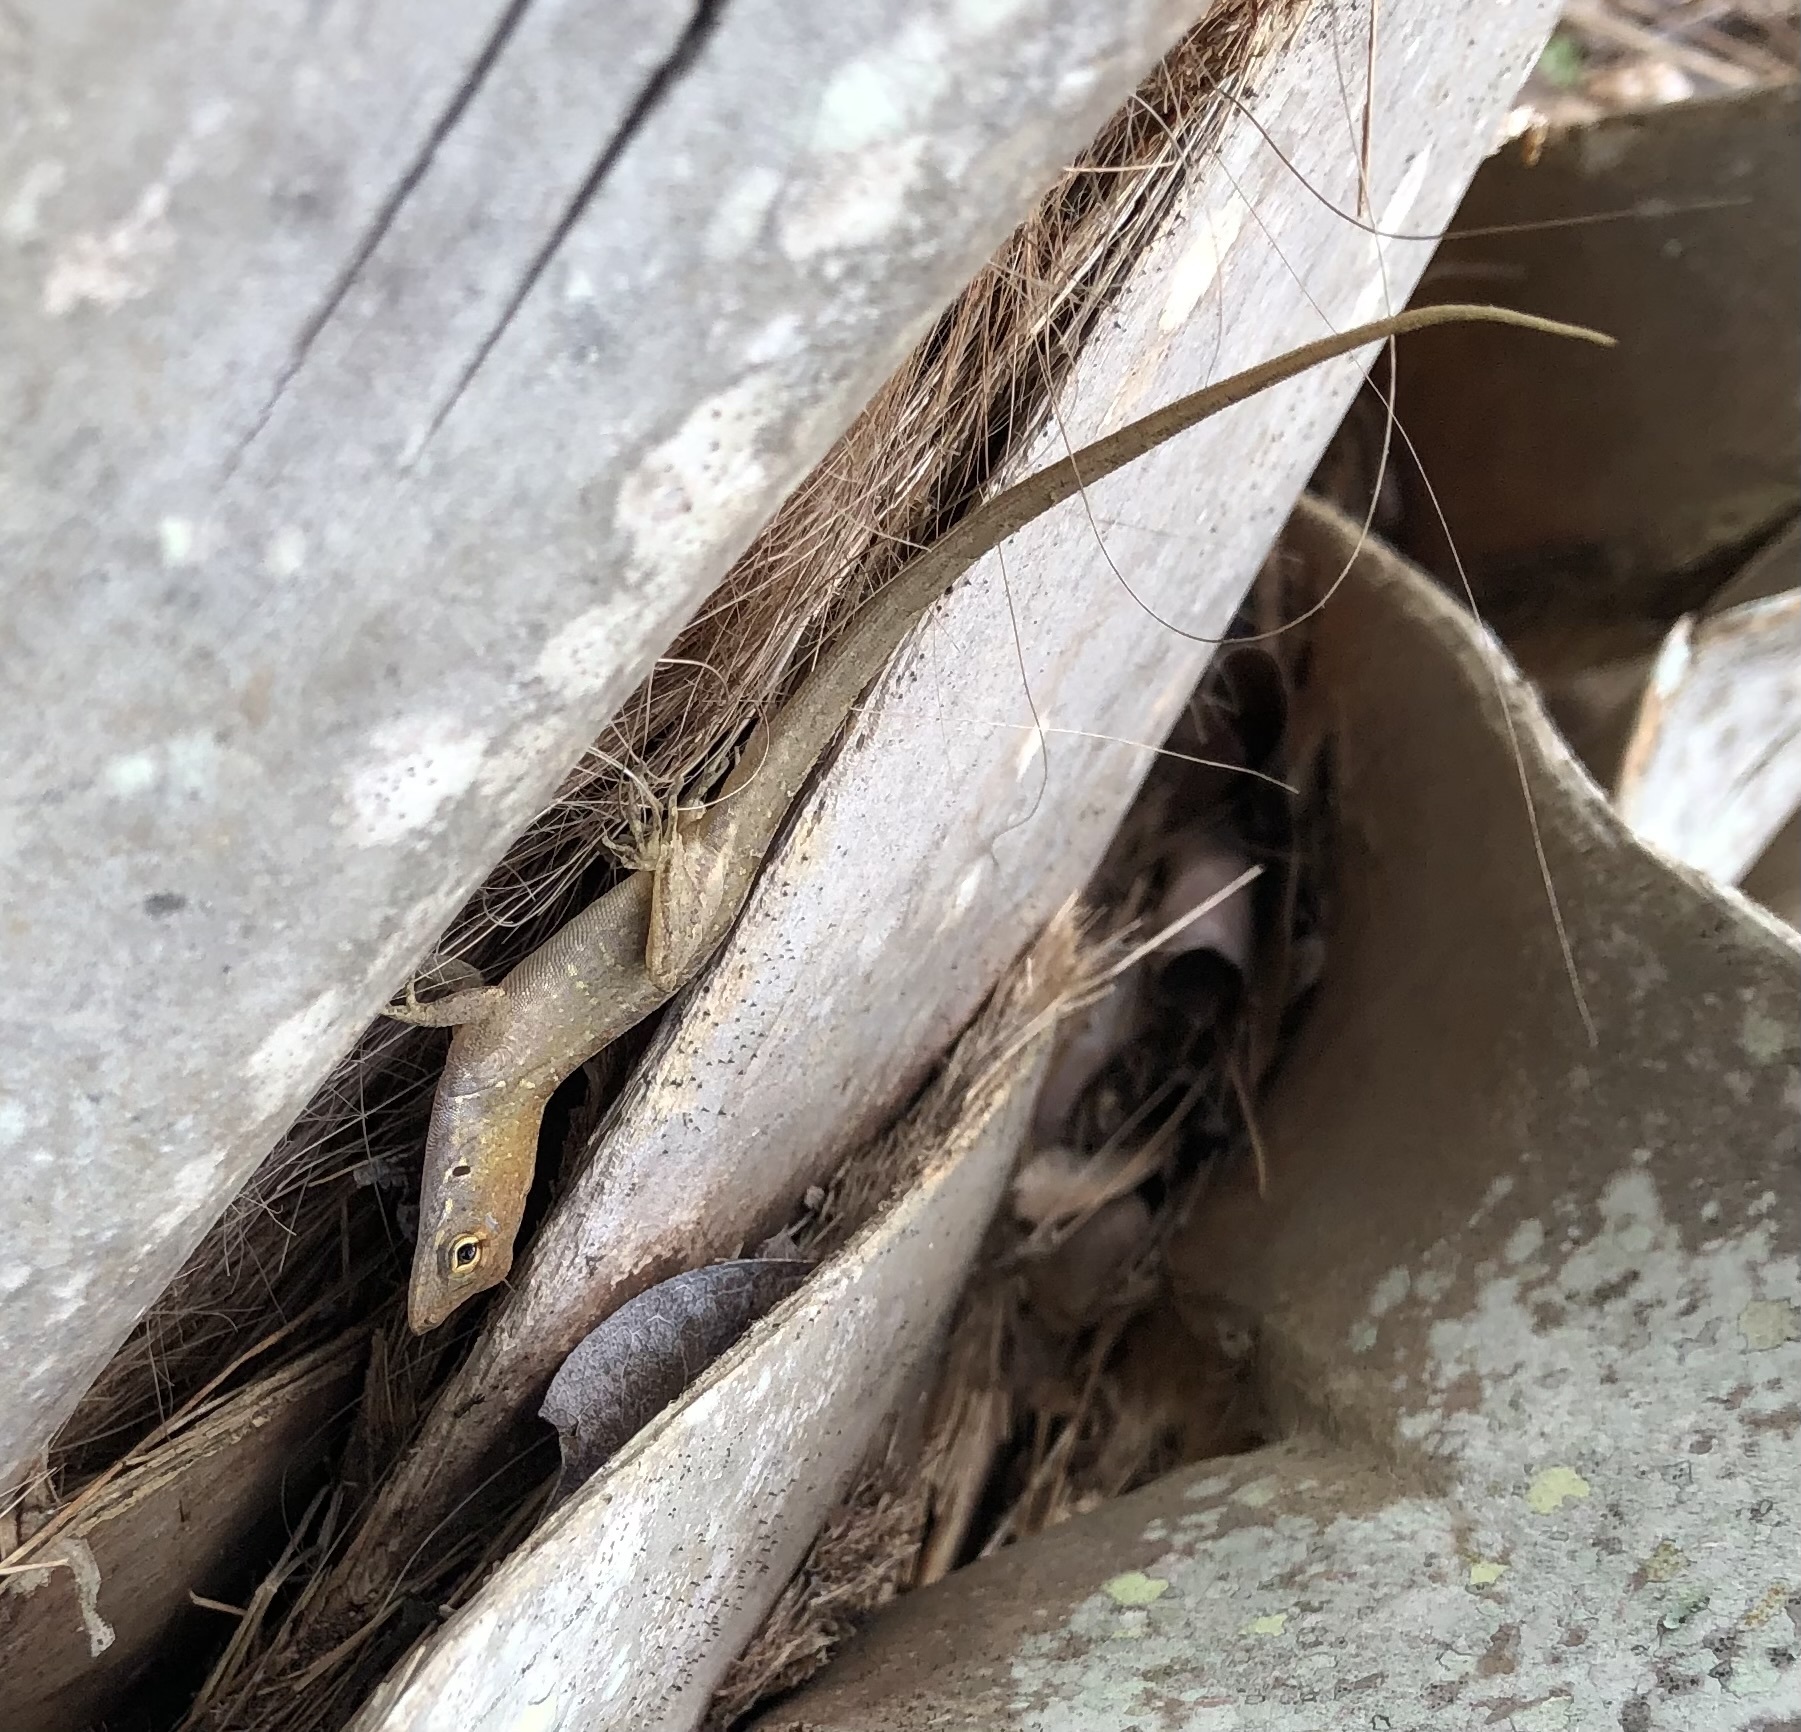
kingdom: Animalia
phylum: Chordata
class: Squamata
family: Dactyloidae
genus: Anolis
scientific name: Anolis sagrei
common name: Brown anole
